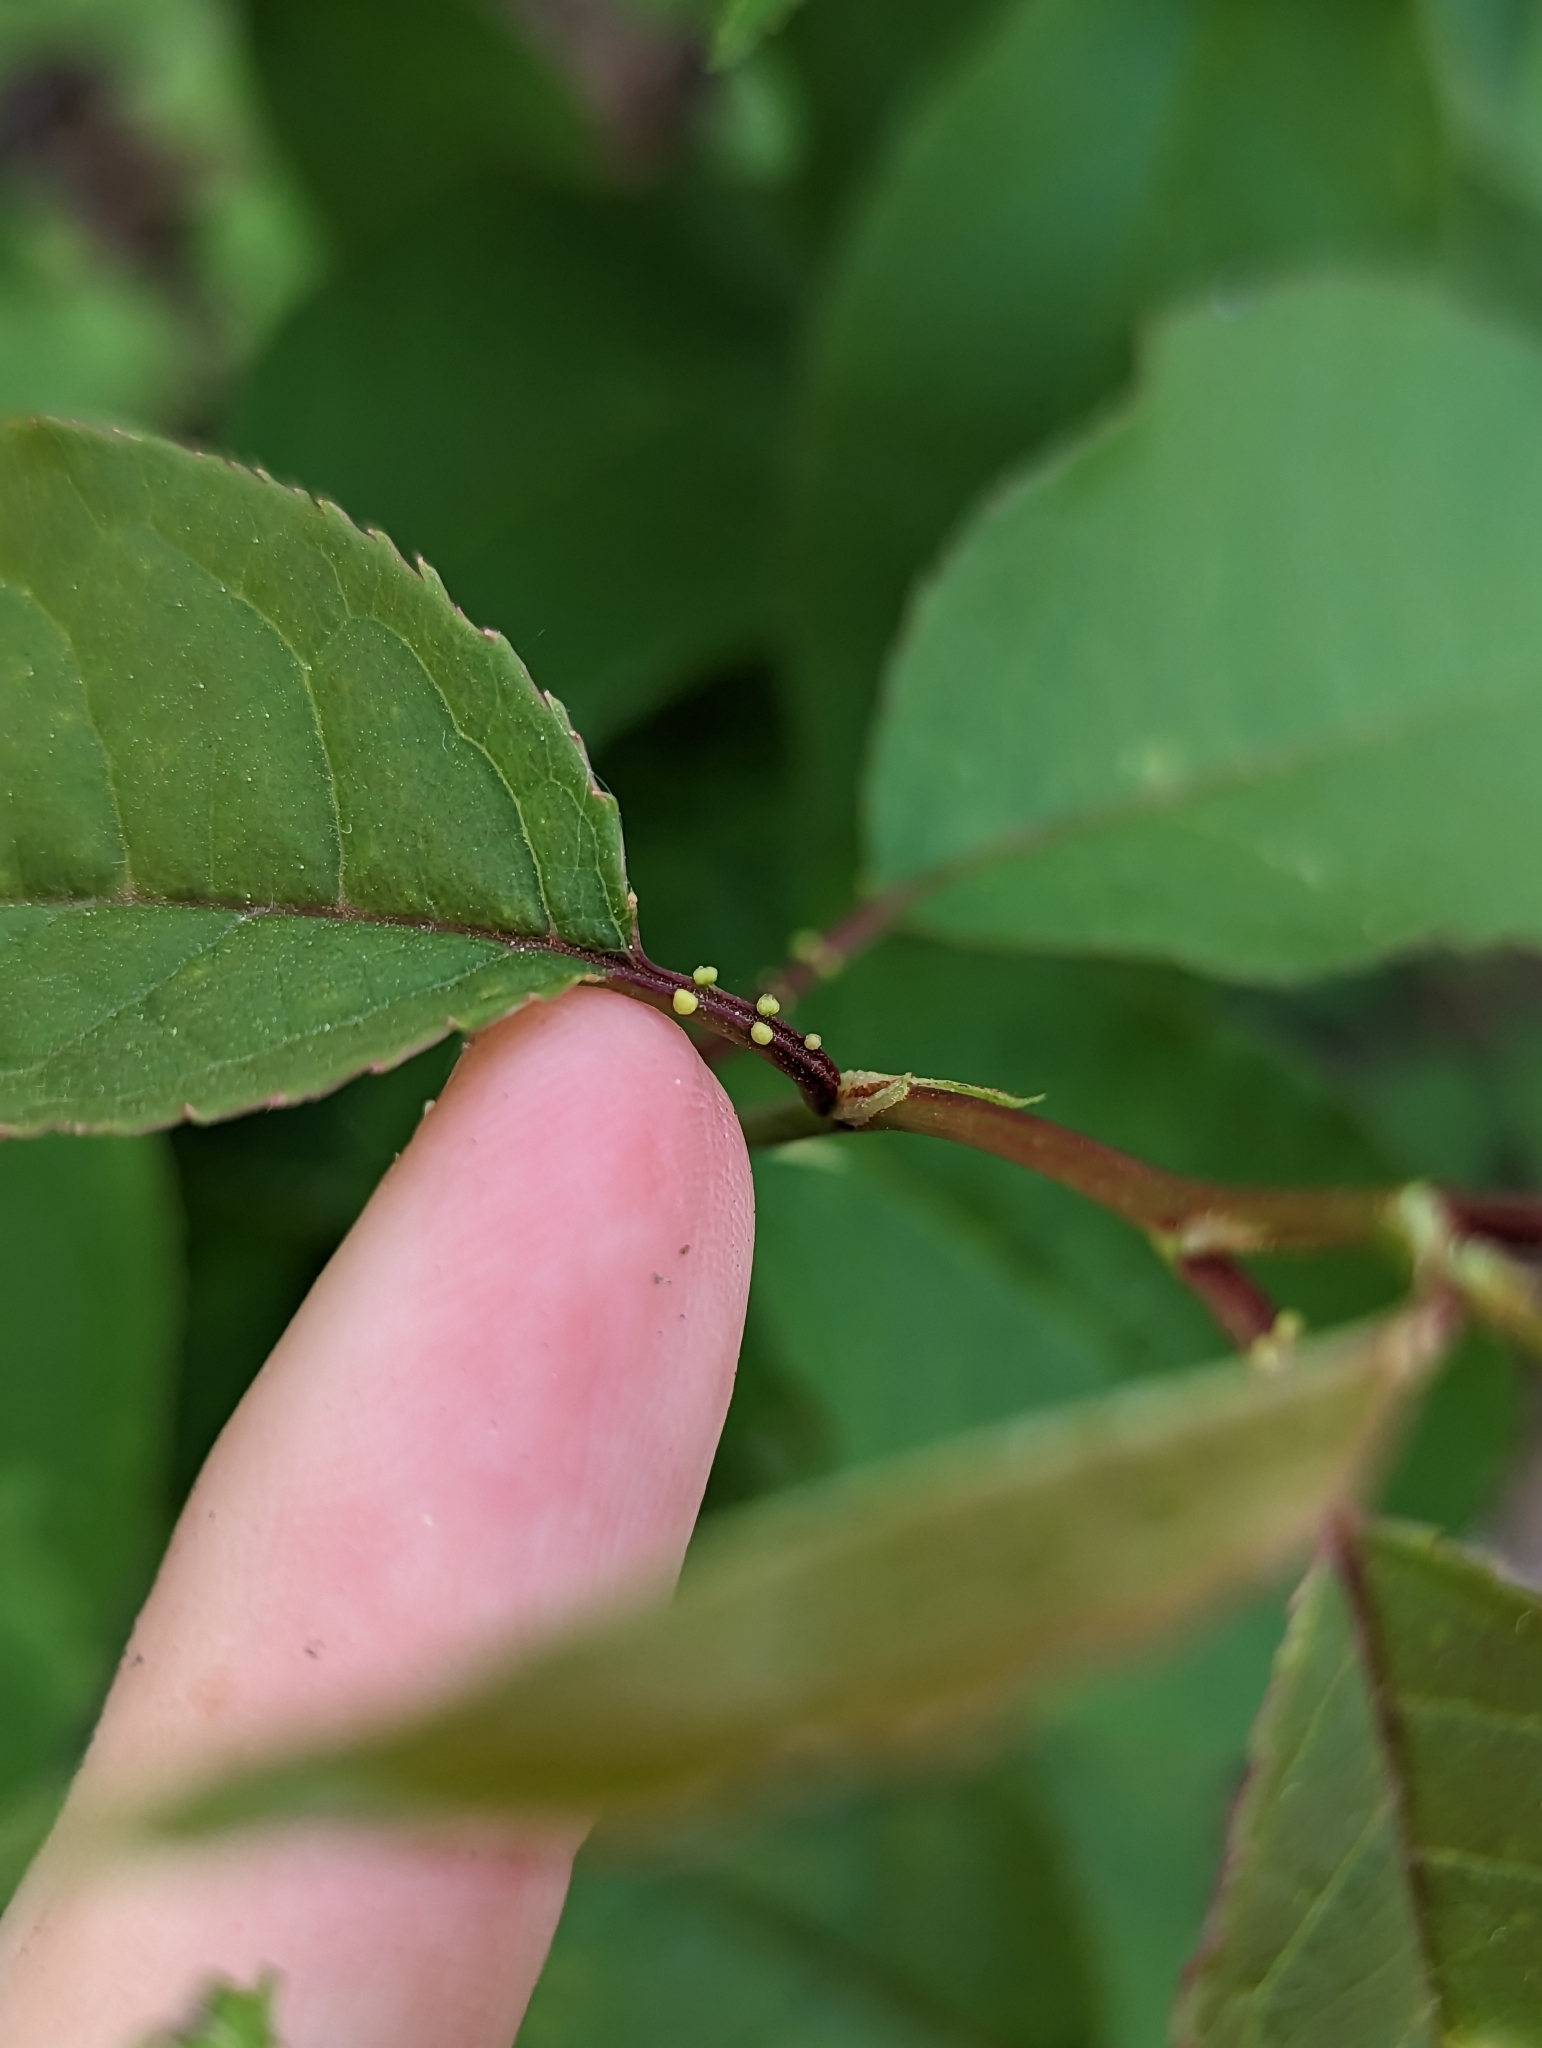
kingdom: Plantae
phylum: Tracheophyta
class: Magnoliopsida
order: Rosales
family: Rosaceae
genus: Prunus
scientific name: Prunus virginiana
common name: Chokecherry
